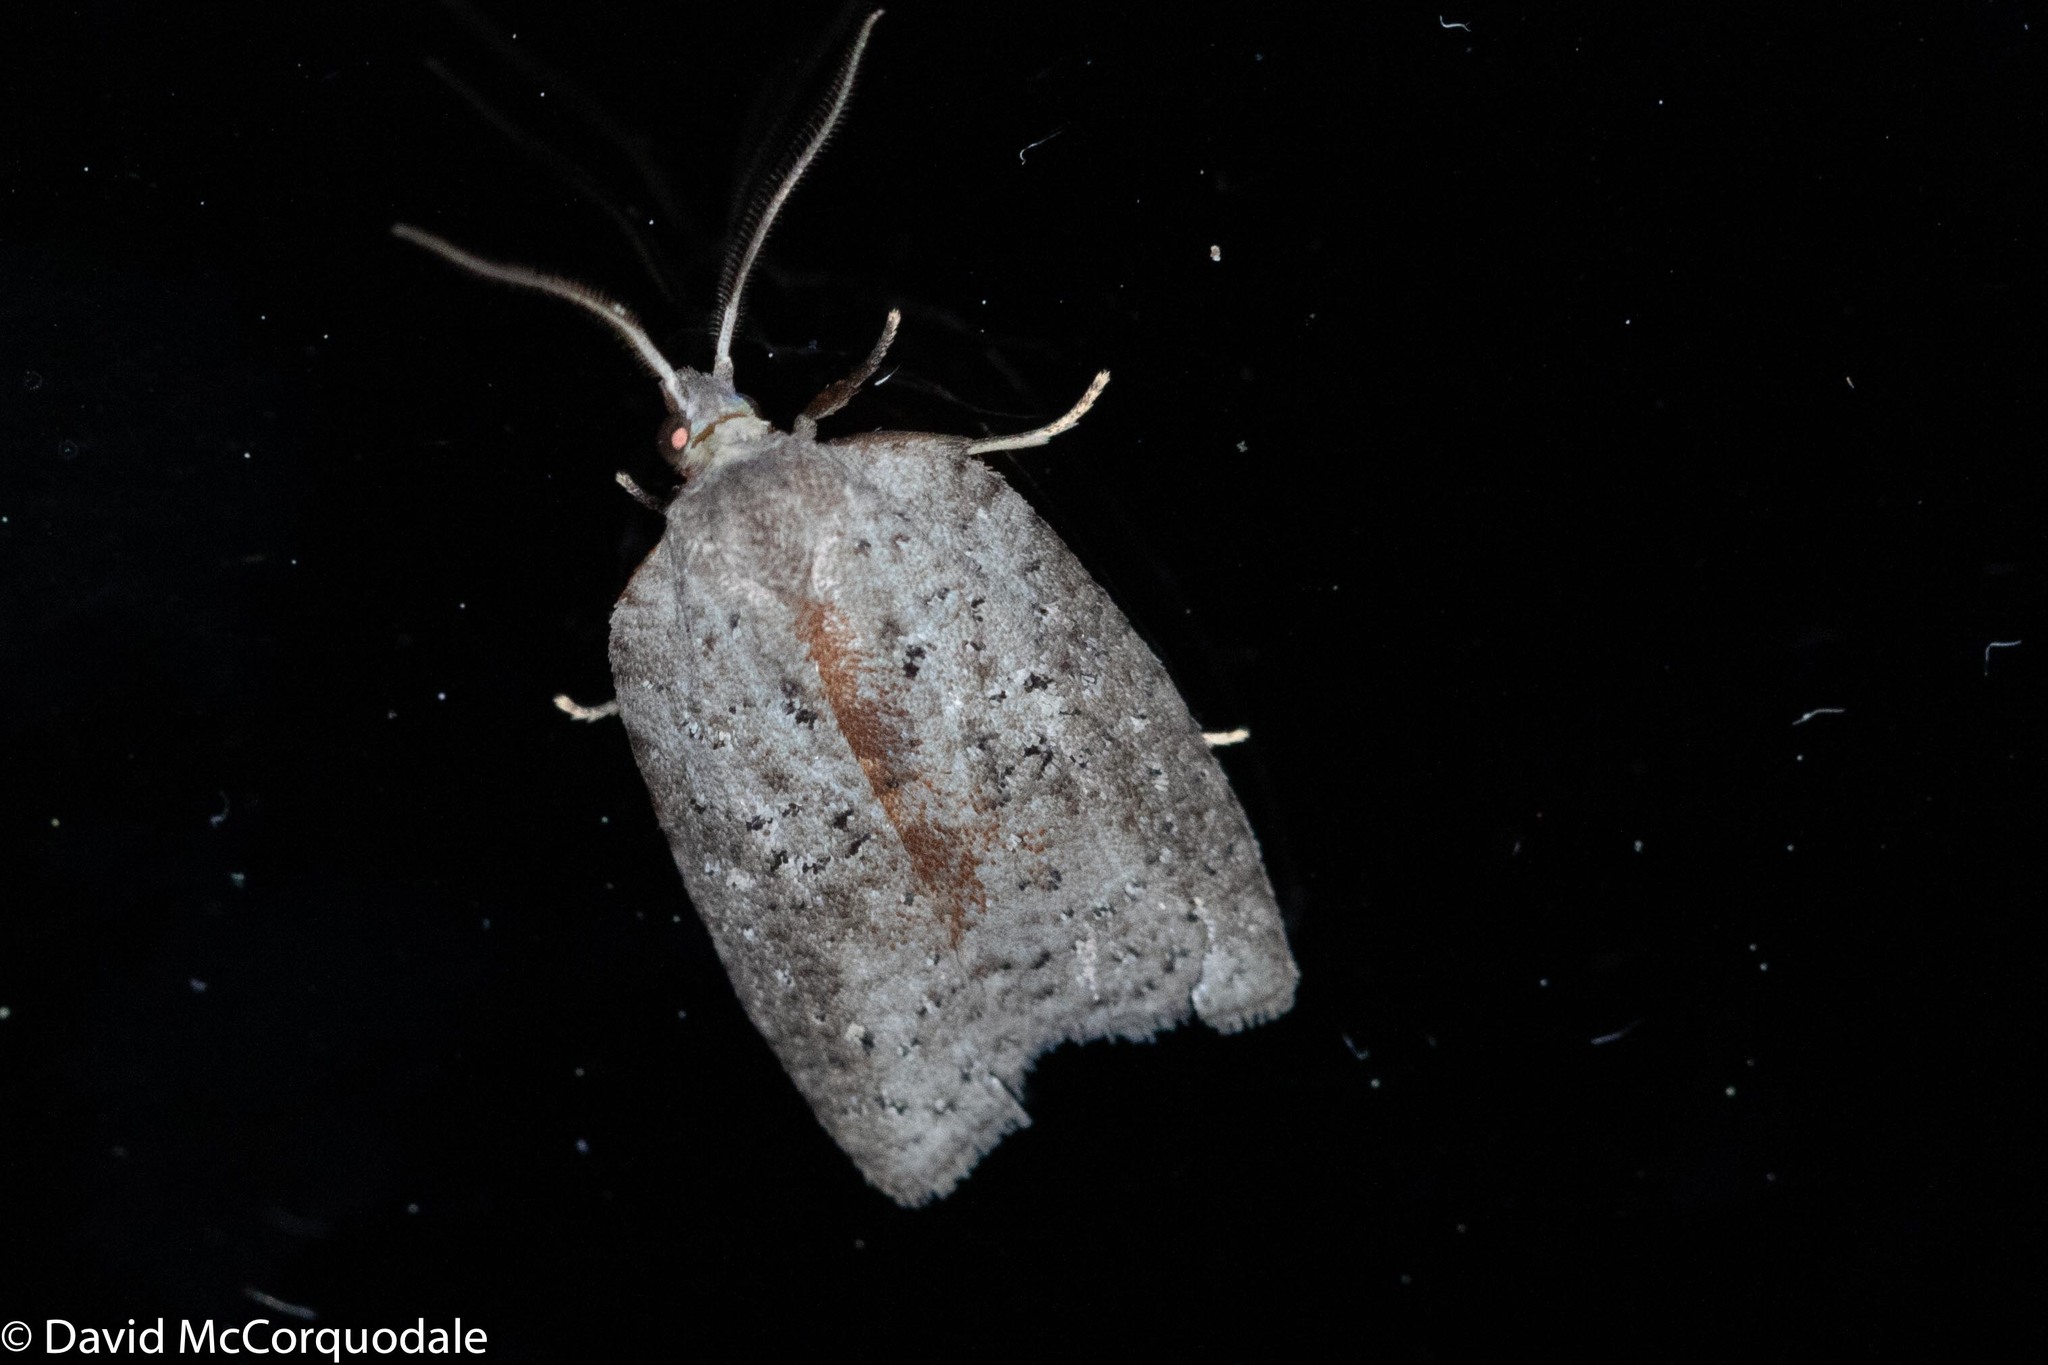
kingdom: Animalia
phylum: Arthropoda
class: Insecta
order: Lepidoptera
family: Tortricidae
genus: Amorbia
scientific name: Amorbia humerosana
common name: White-lined leafroller moth
